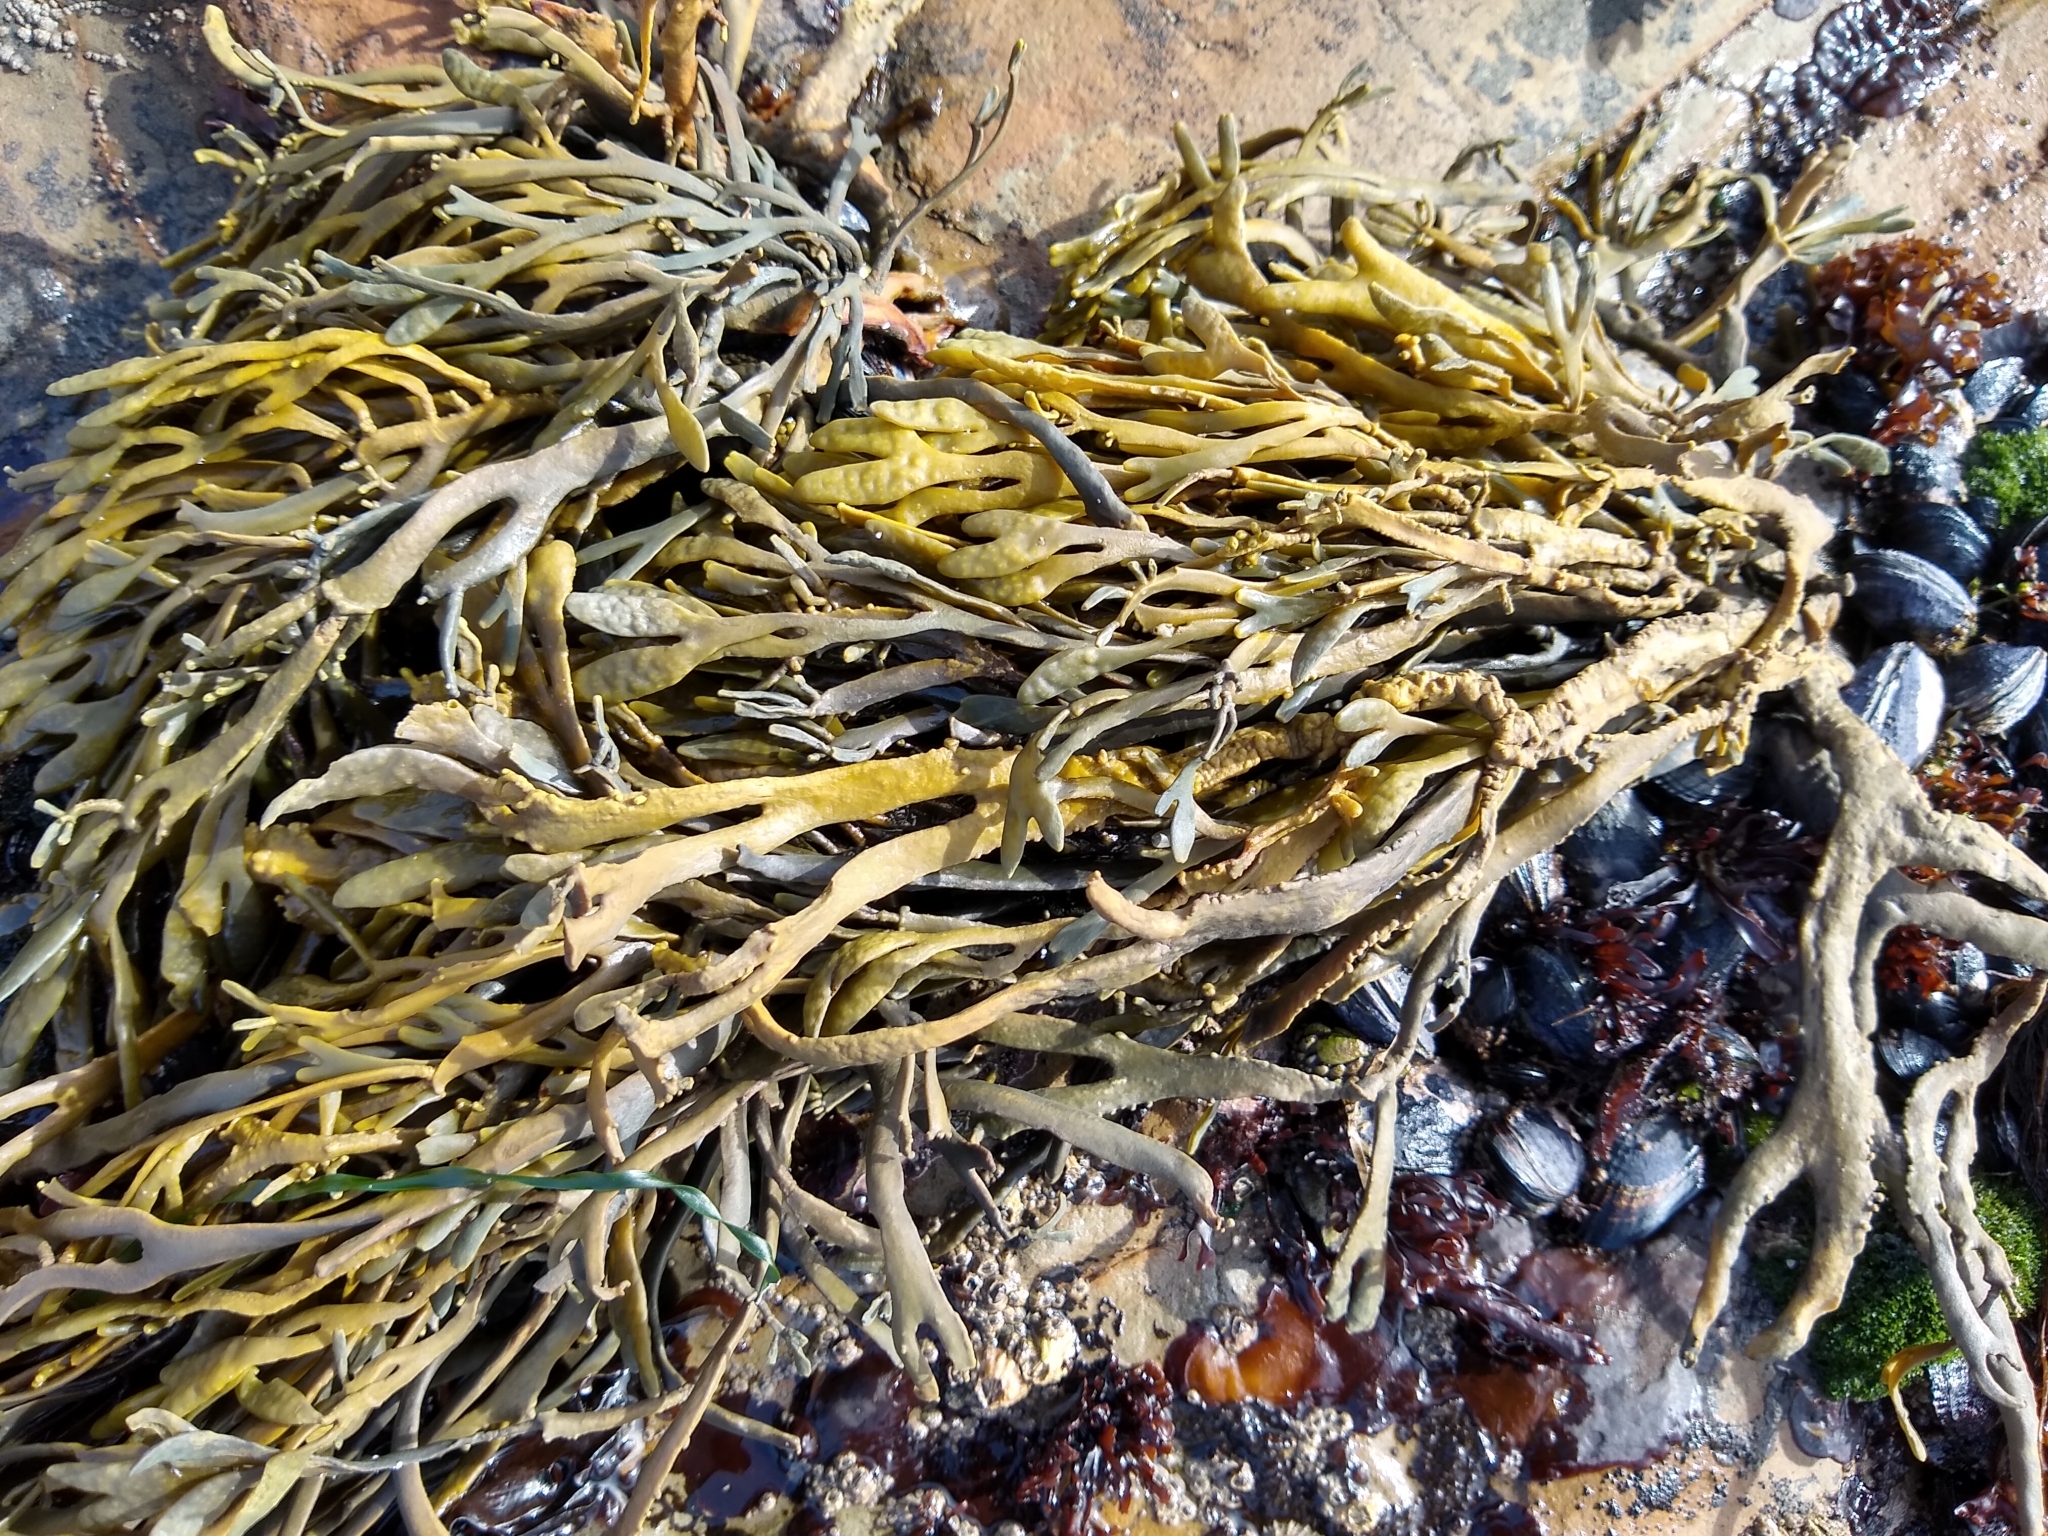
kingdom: Chromista
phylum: Ochrophyta
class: Phaeophyceae
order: Fucales
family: Fucaceae
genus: Silvetia
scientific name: Silvetia
